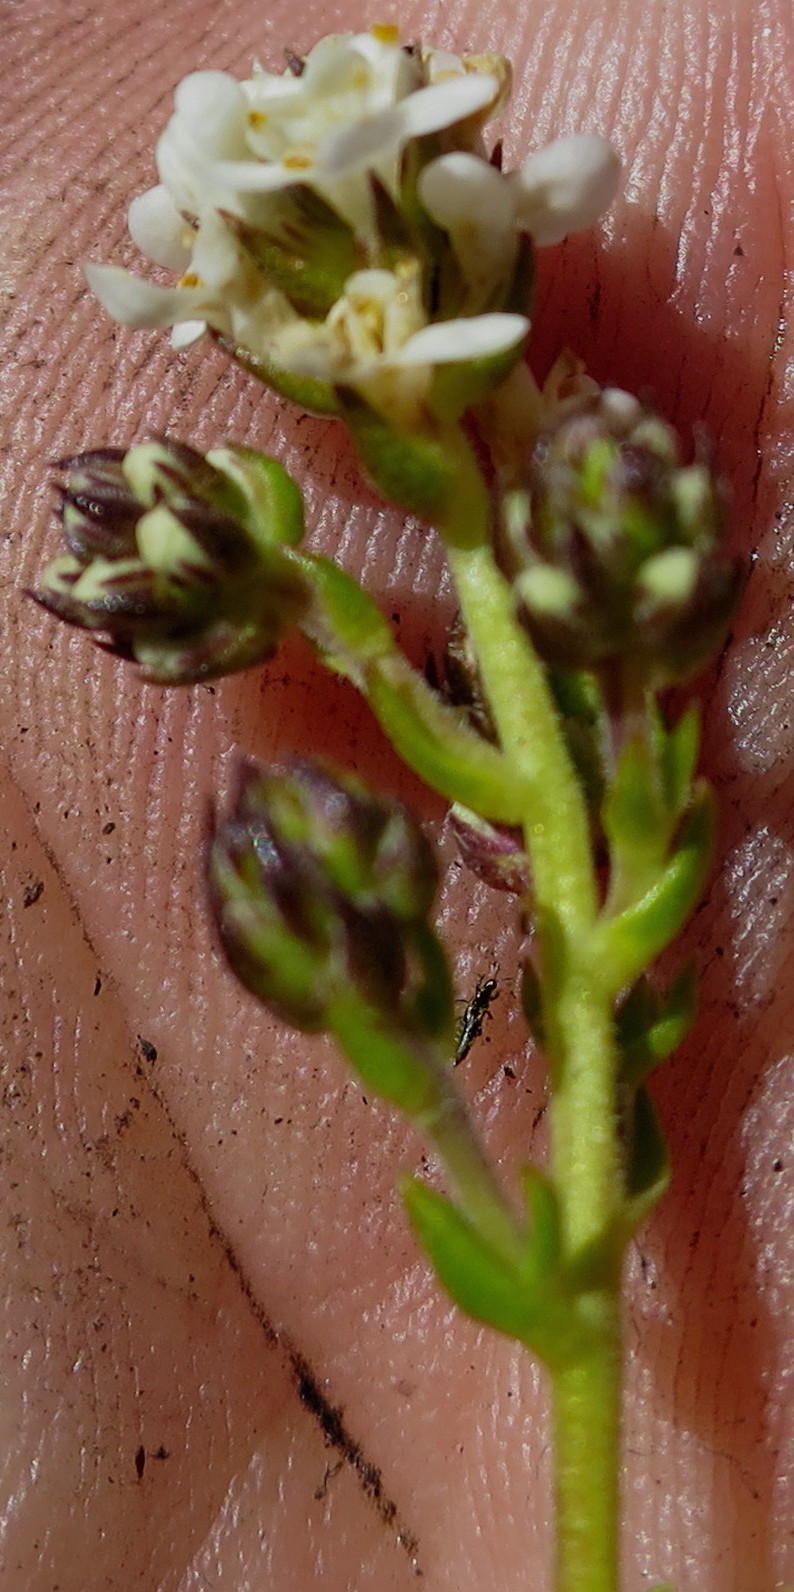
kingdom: Plantae
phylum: Tracheophyta
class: Magnoliopsida
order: Lamiales
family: Scrophulariaceae
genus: Selago
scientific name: Selago karooica
